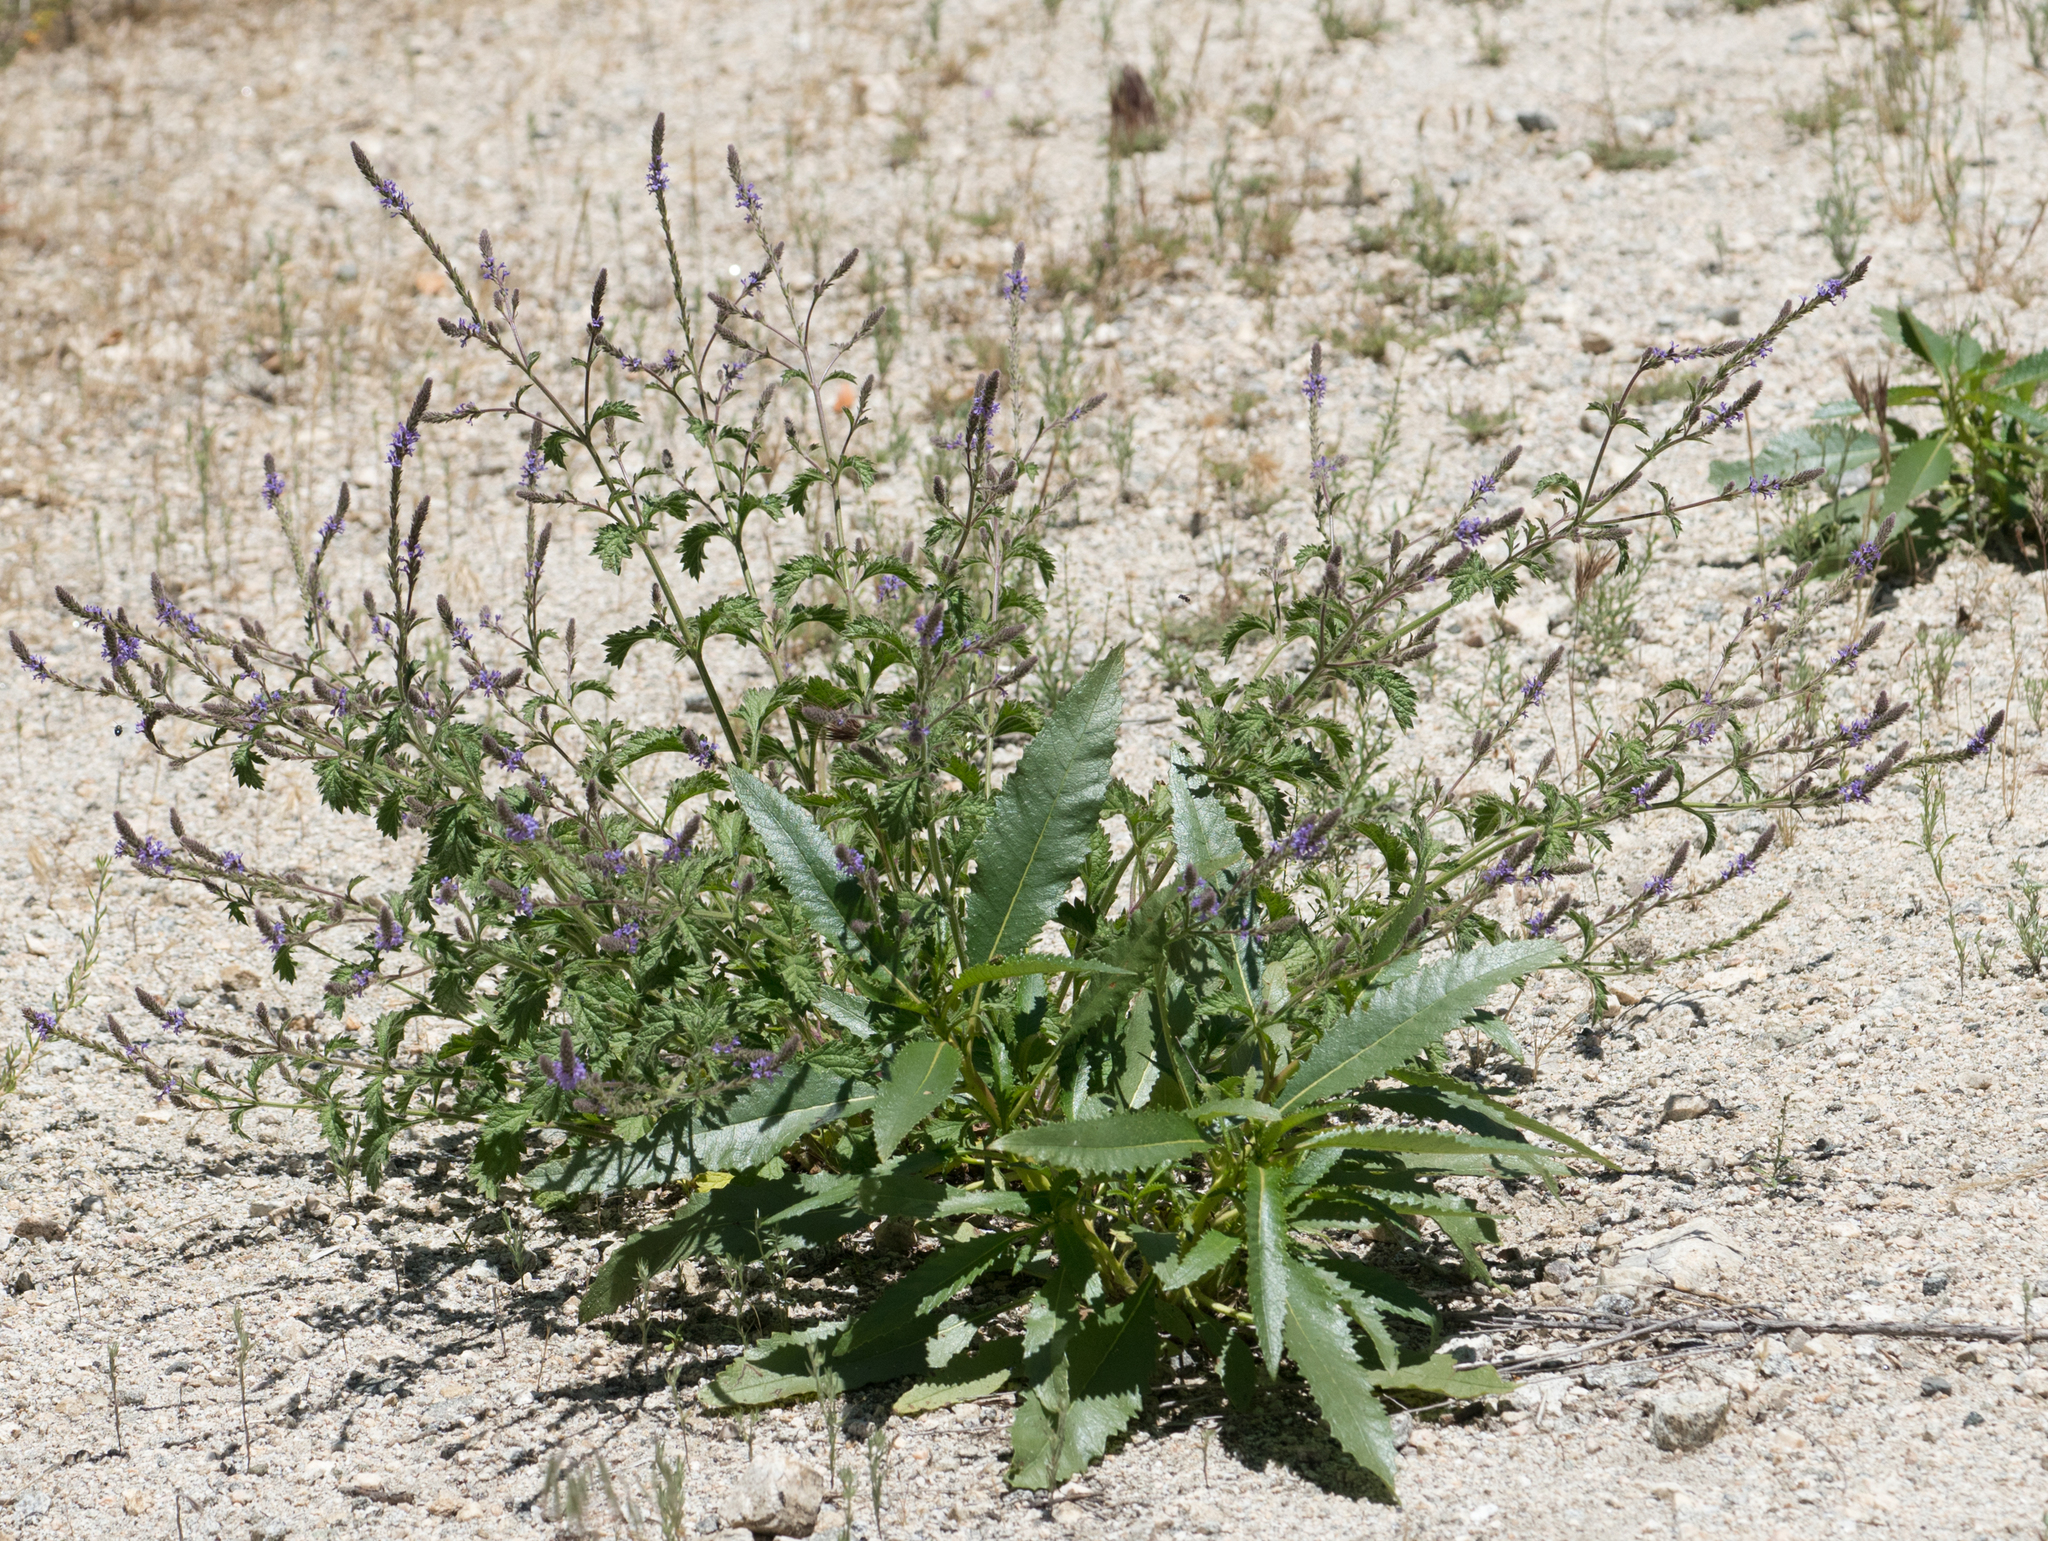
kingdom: Plantae
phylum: Tracheophyta
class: Magnoliopsida
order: Lamiales
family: Verbenaceae
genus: Verbena
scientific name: Verbena lasiostachys
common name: Vervain
